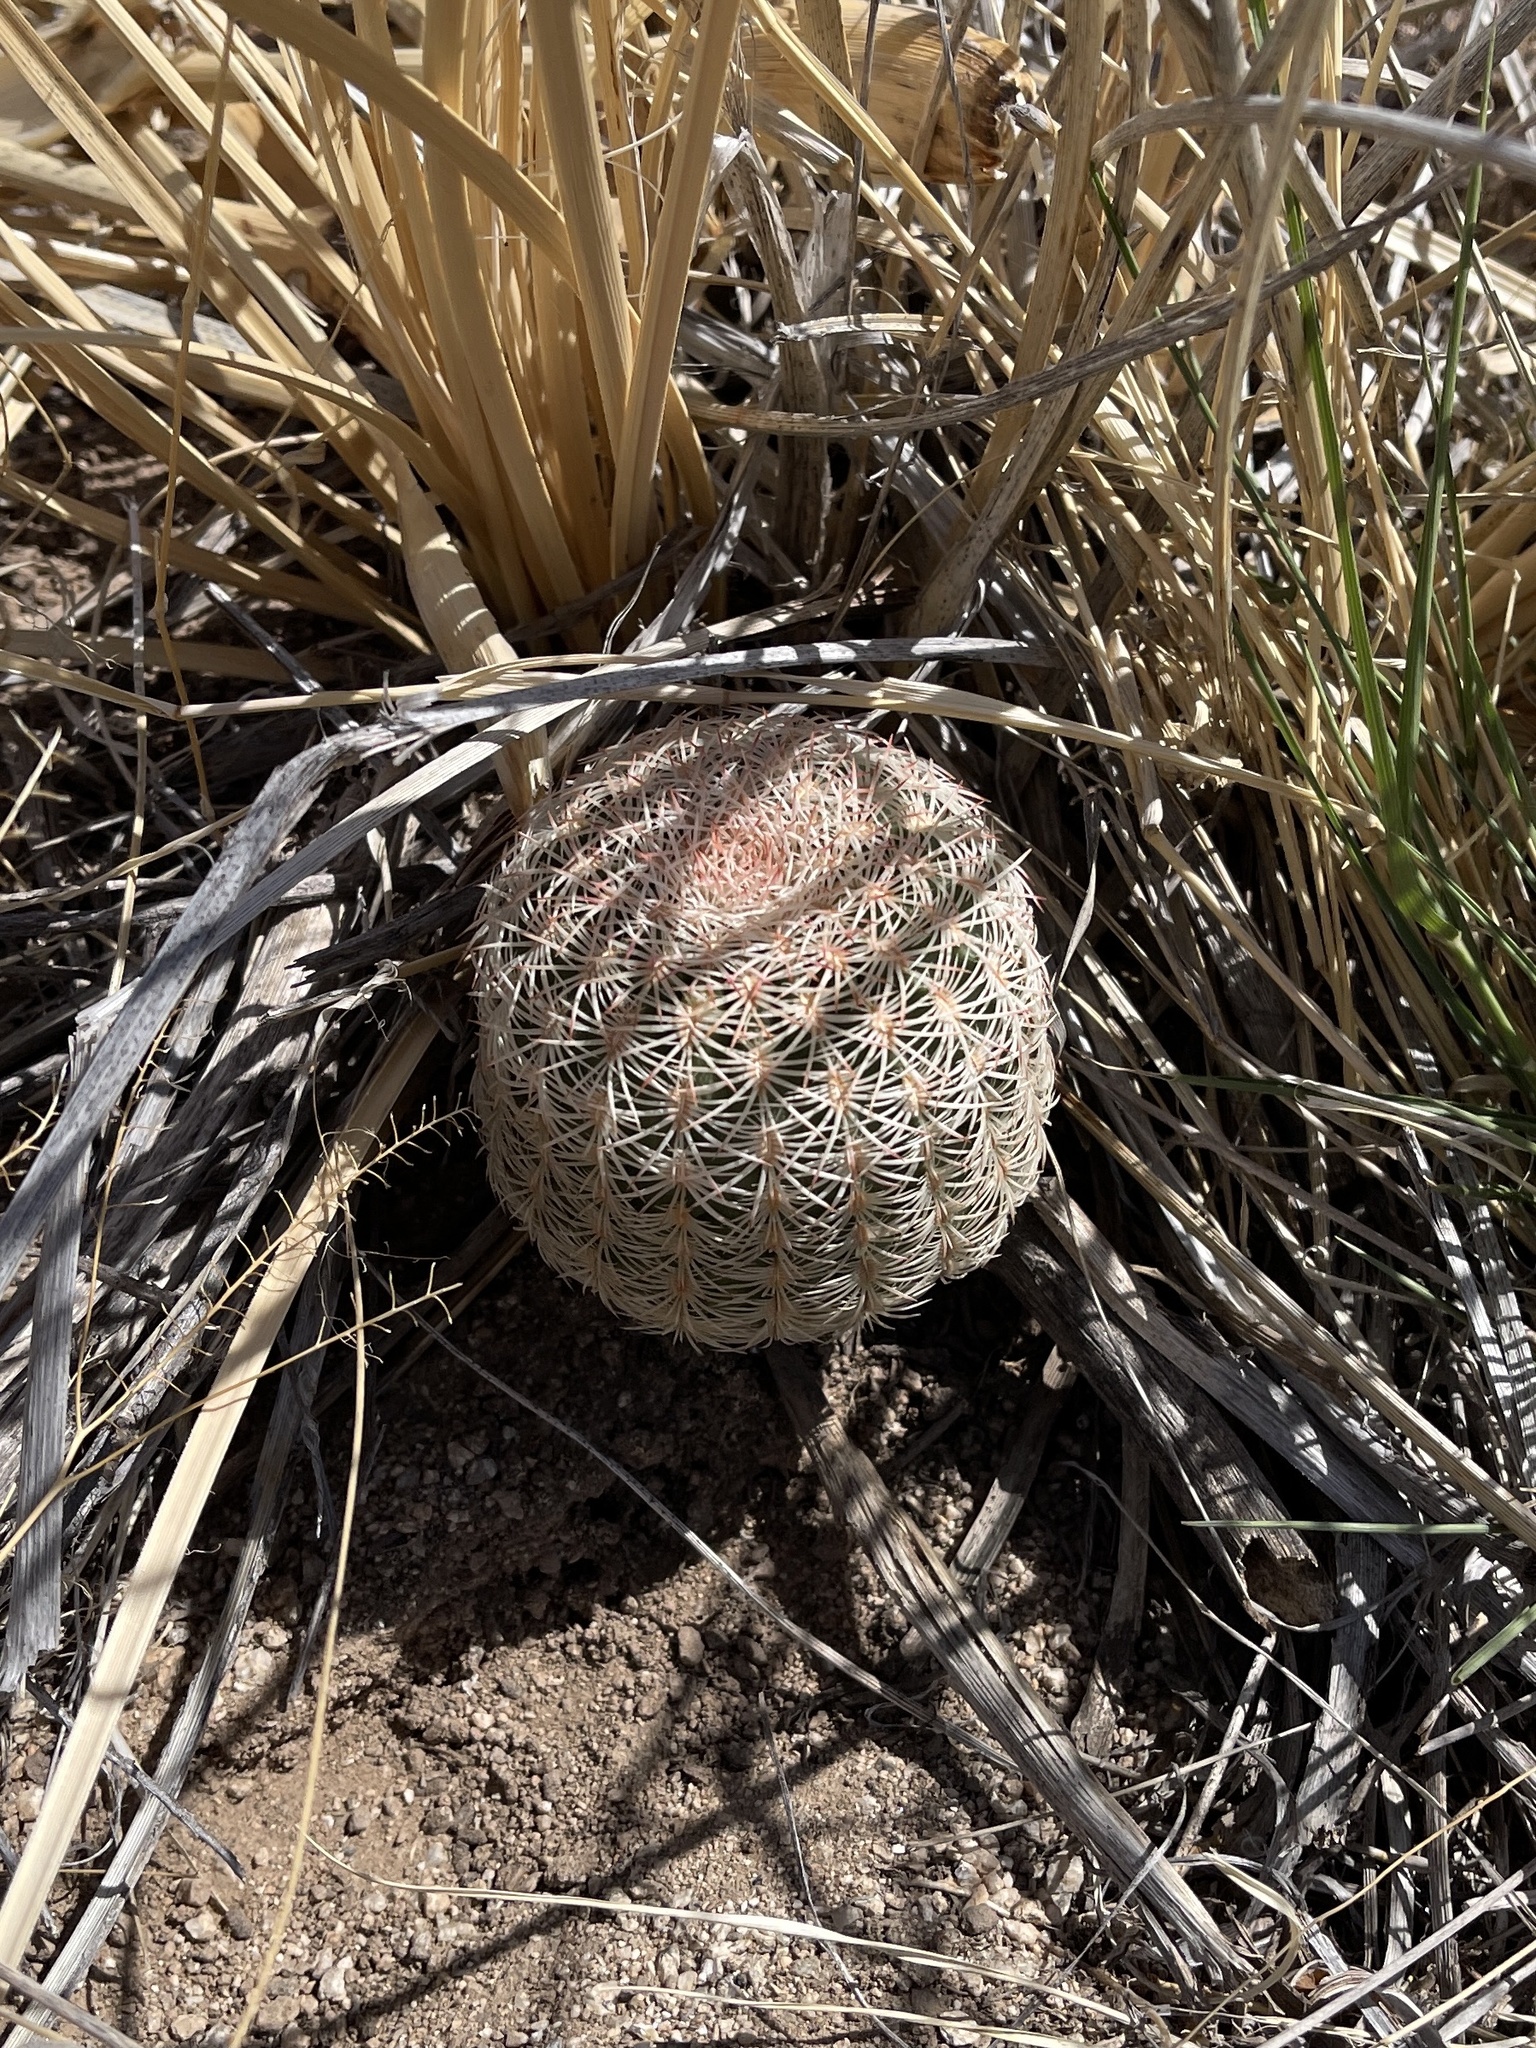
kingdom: Plantae
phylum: Tracheophyta
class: Magnoliopsida
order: Caryophyllales
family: Cactaceae
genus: Echinocereus
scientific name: Echinocereus rigidissimus
